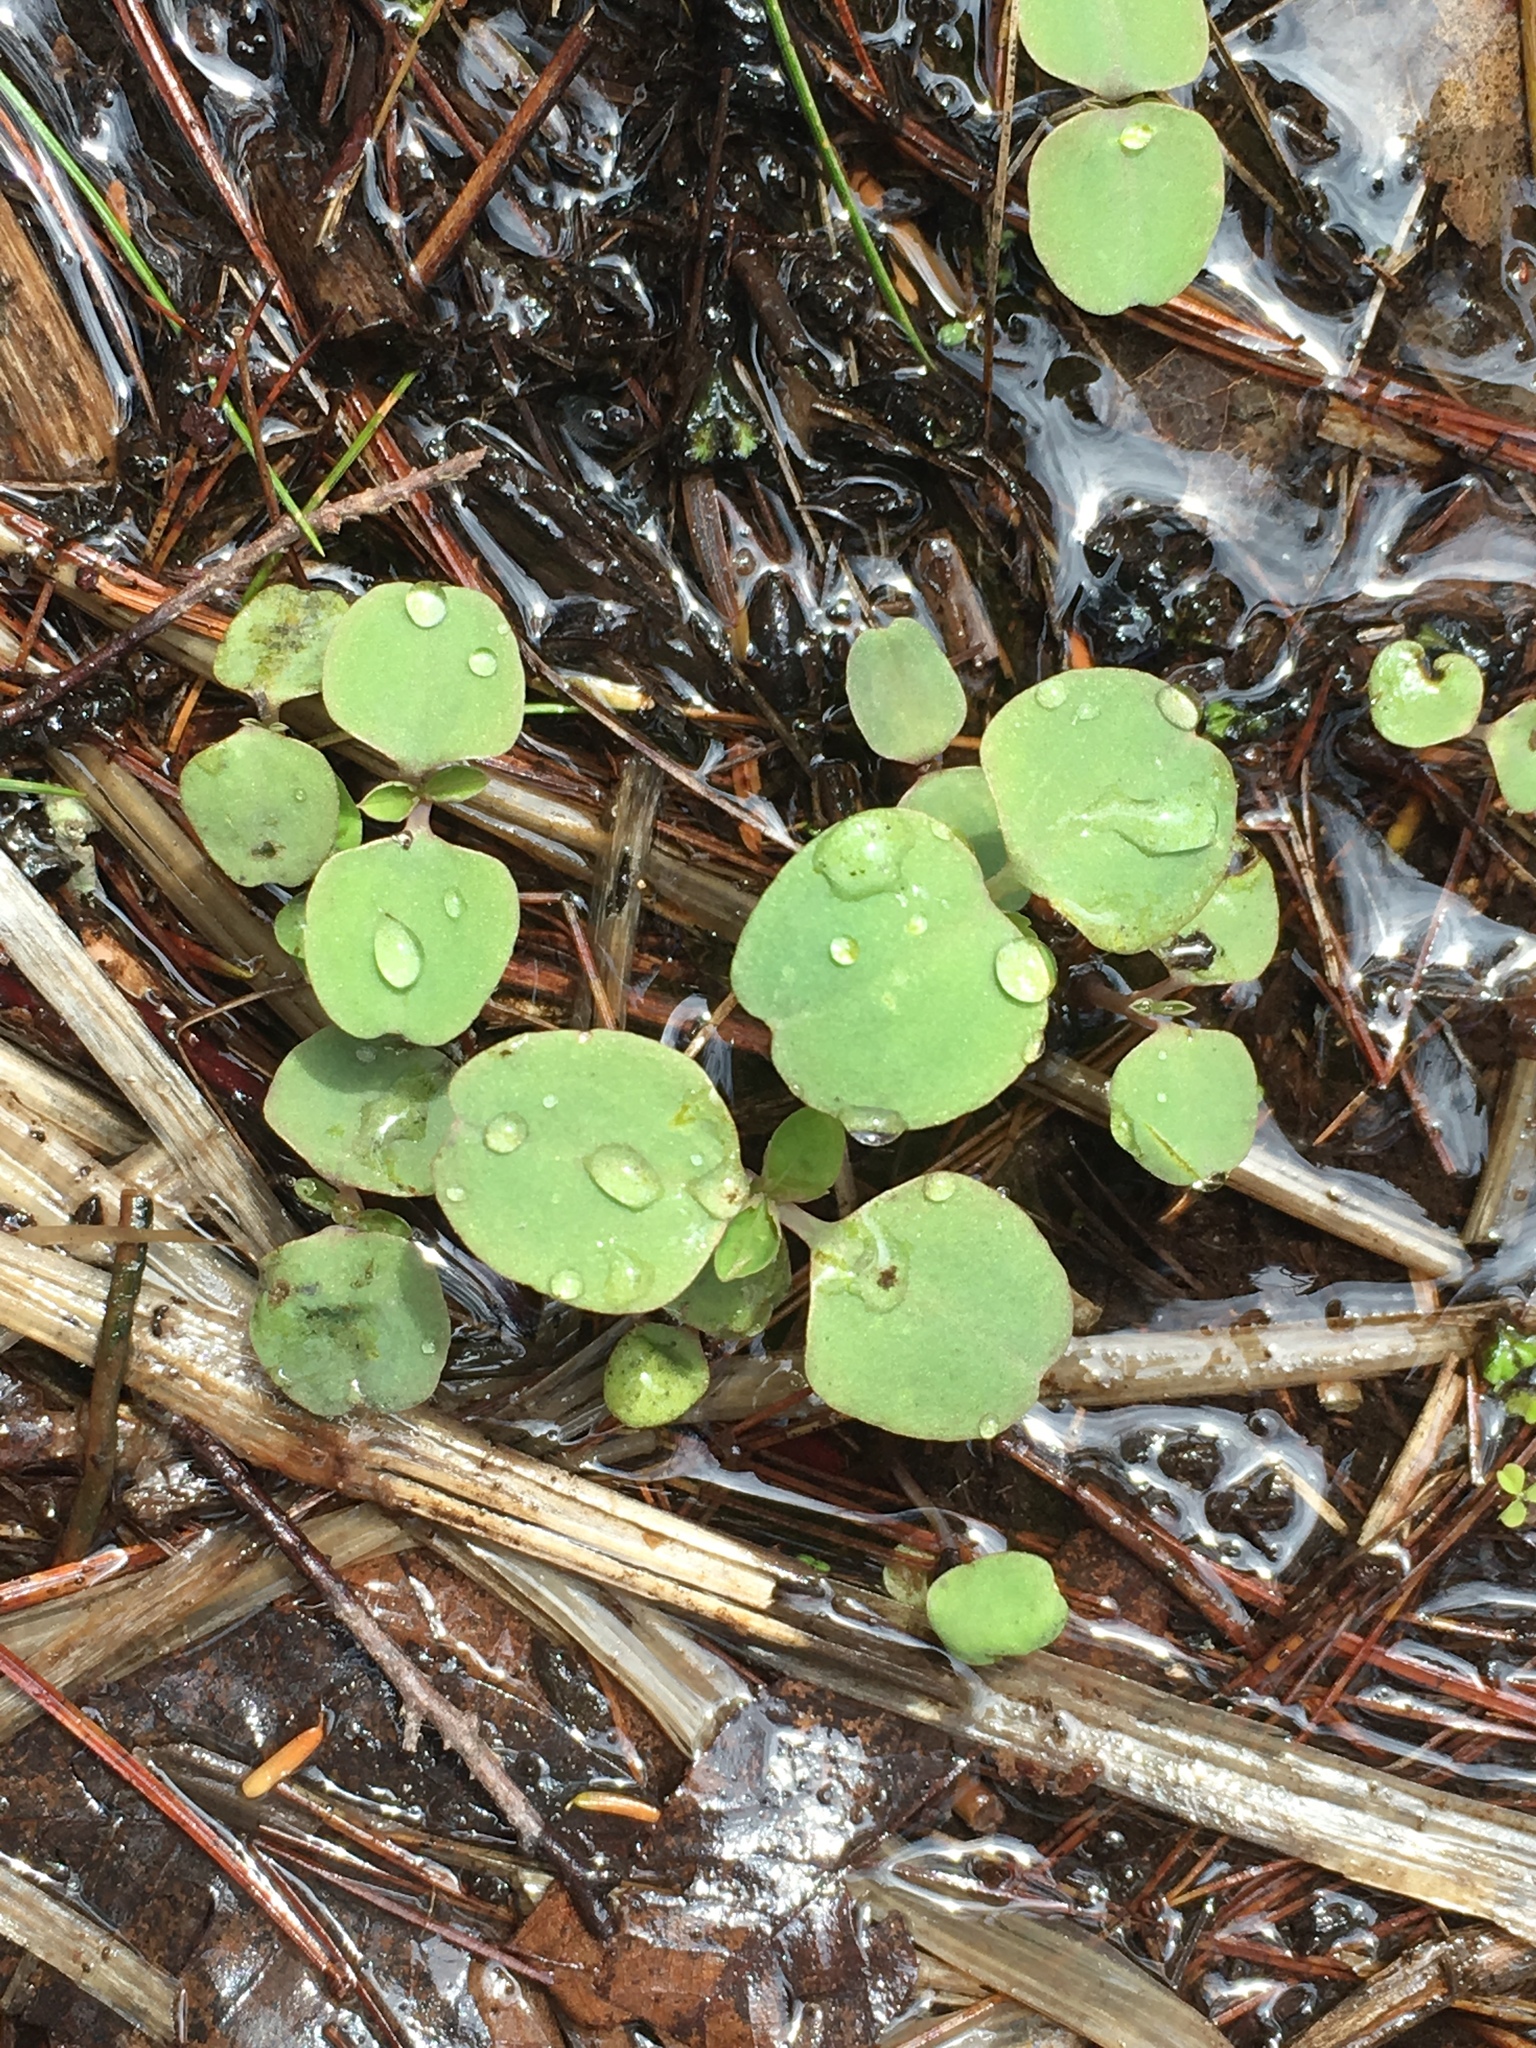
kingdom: Plantae
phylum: Tracheophyta
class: Magnoliopsida
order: Ericales
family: Balsaminaceae
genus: Impatiens
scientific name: Impatiens capensis
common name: Orange balsam
